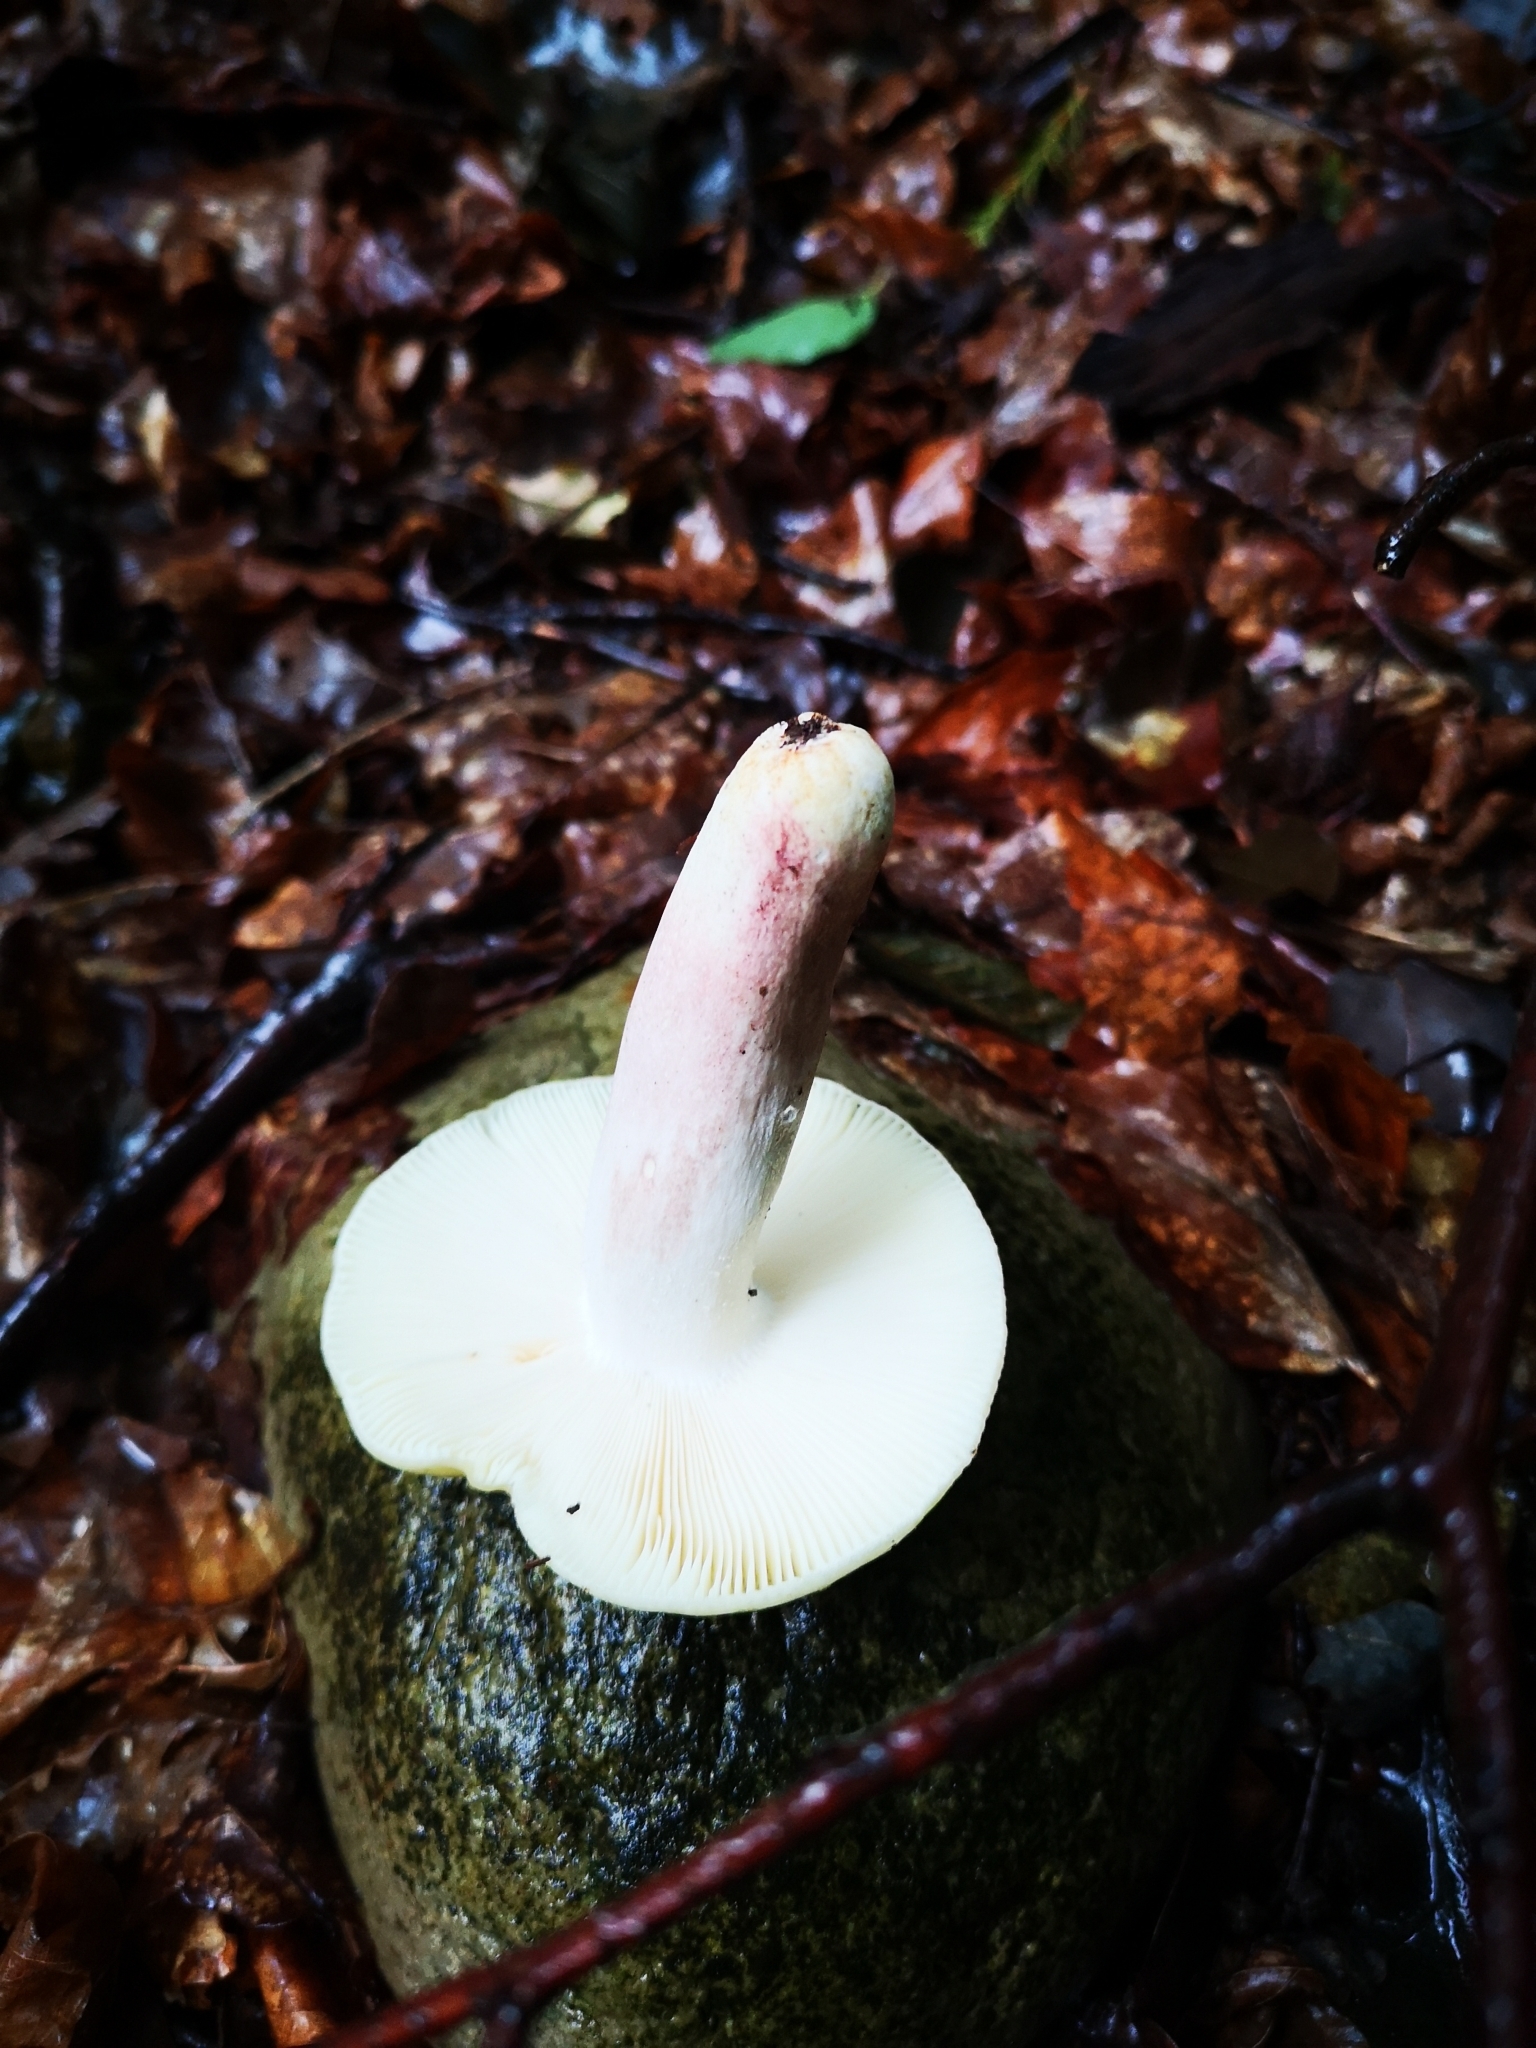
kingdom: Fungi
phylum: Basidiomycota
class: Agaricomycetes
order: Russulales
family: Russulaceae
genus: Russula
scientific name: Russula violeipes
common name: Velvet brittlegill
